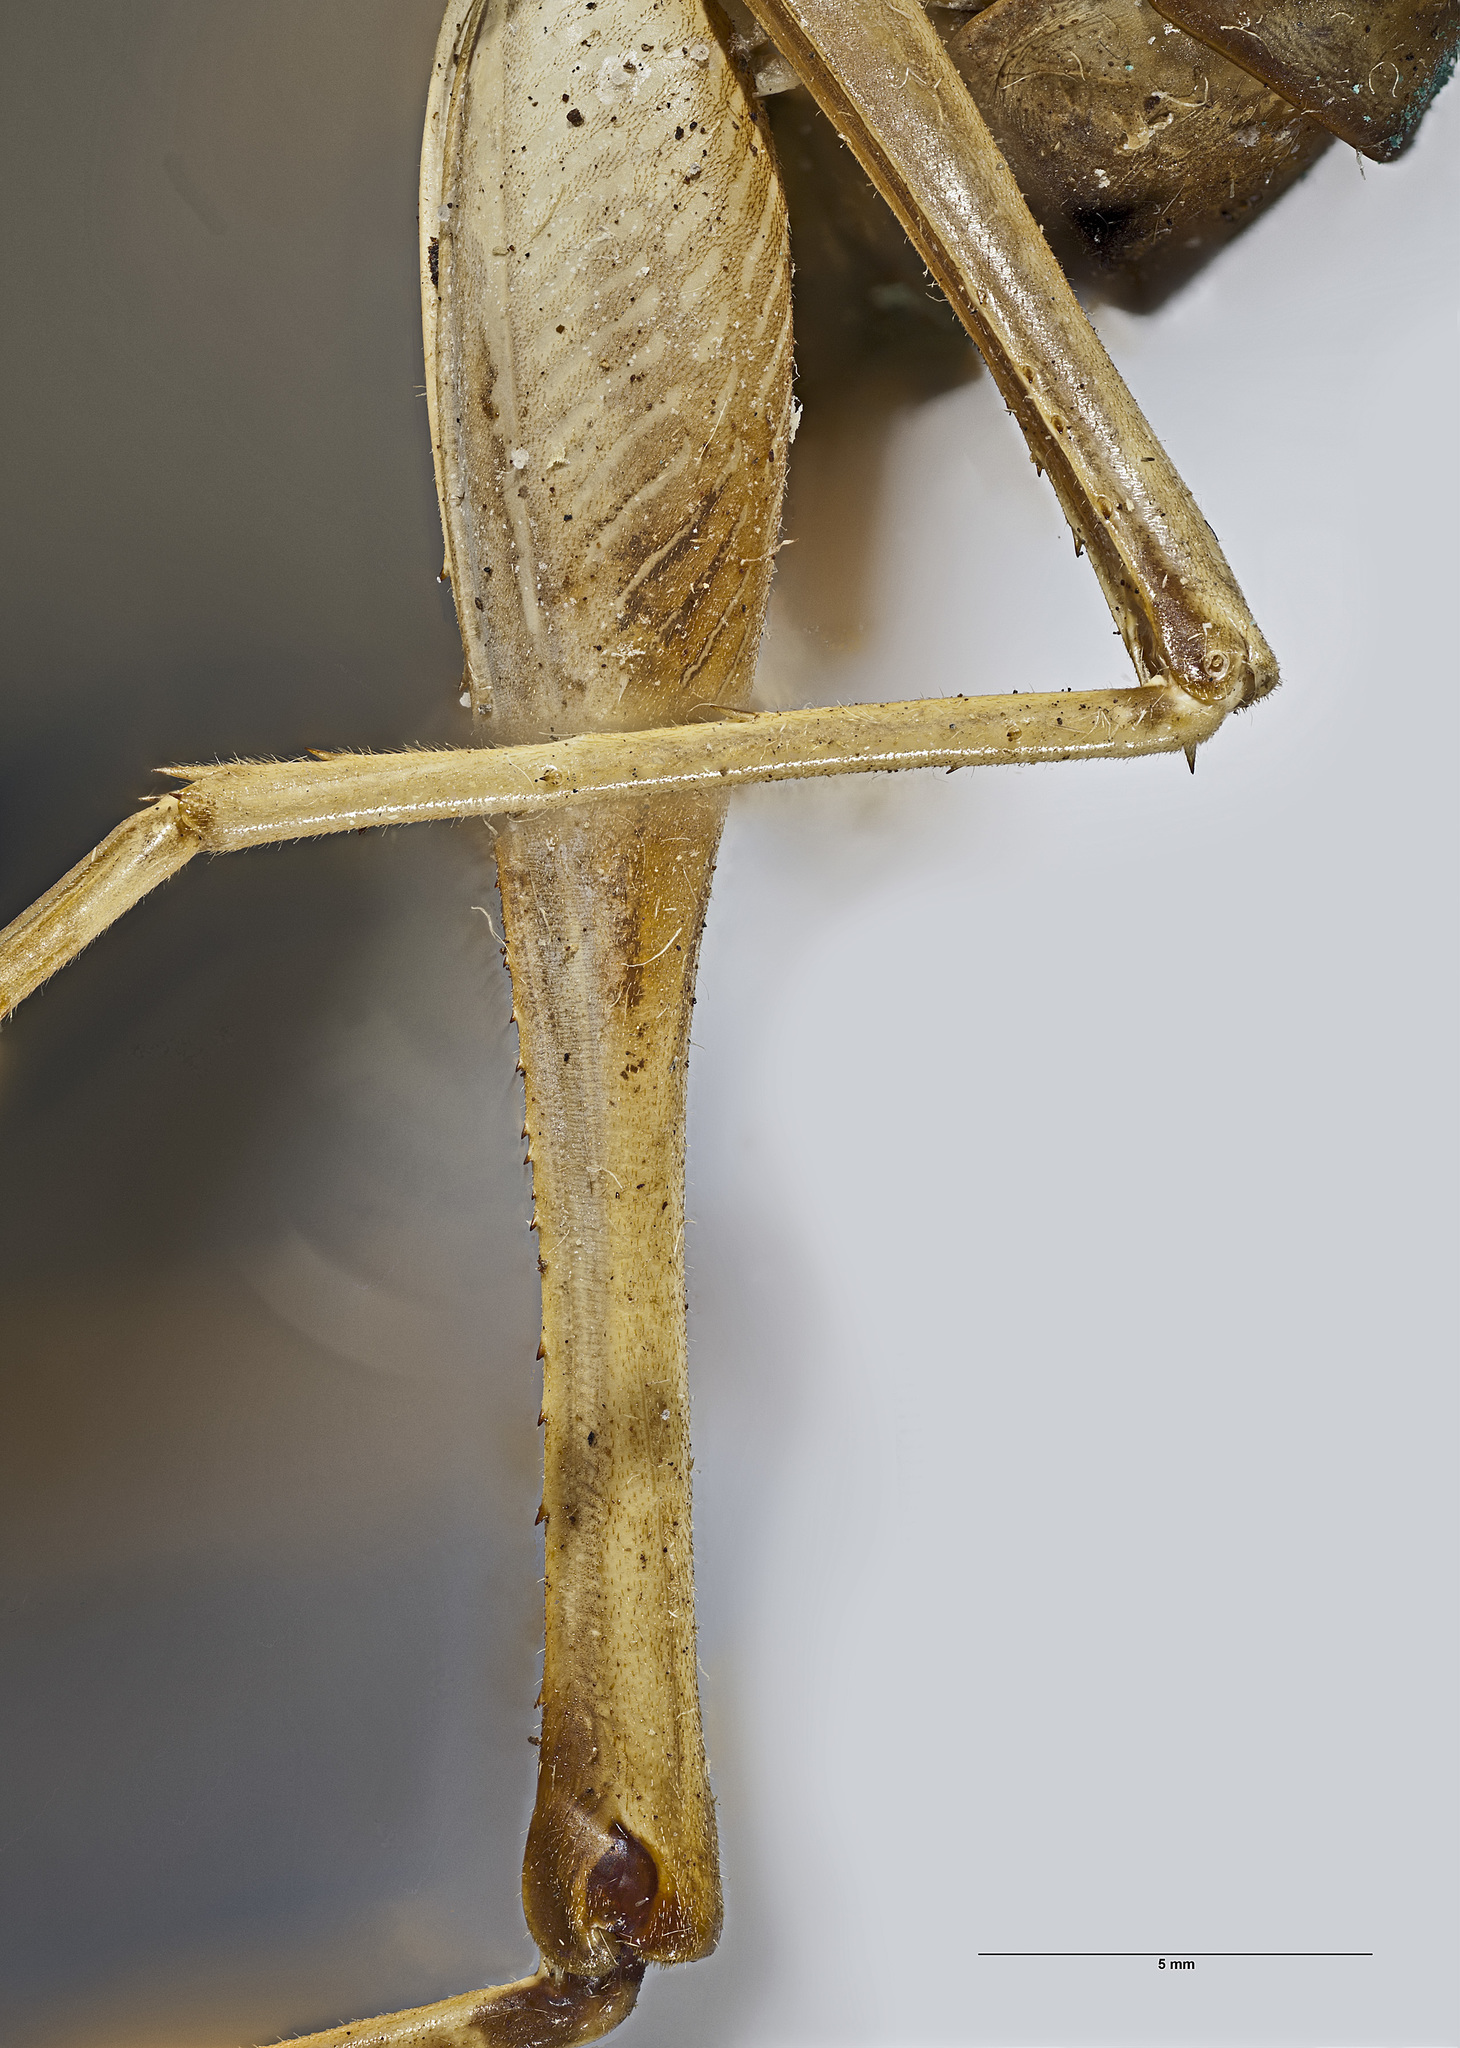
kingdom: Animalia
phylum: Arthropoda
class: Insecta
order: Orthoptera
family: Rhaphidophoridae
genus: Pachyrhamma
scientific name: Pachyrhamma unicolor
